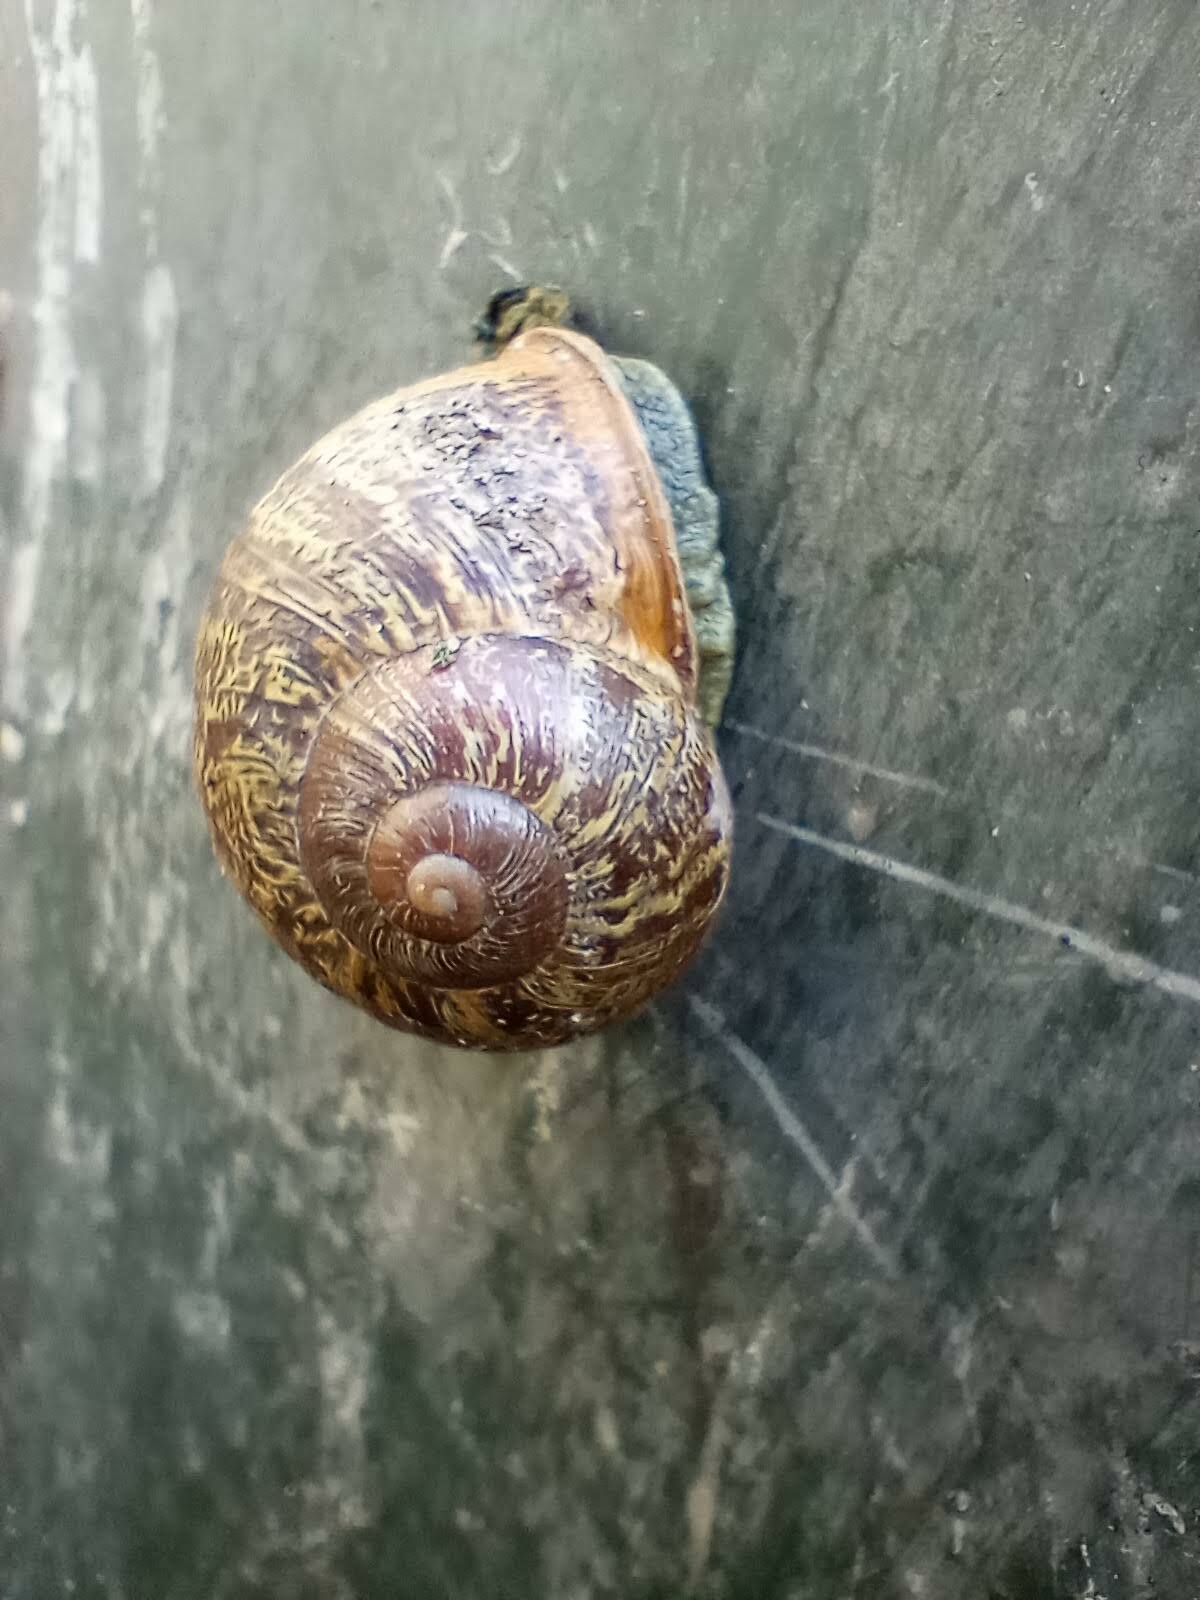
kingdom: Animalia
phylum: Mollusca
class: Gastropoda
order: Stylommatophora
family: Helicidae
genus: Cornu
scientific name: Cornu aspersum
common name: Brown garden snail
